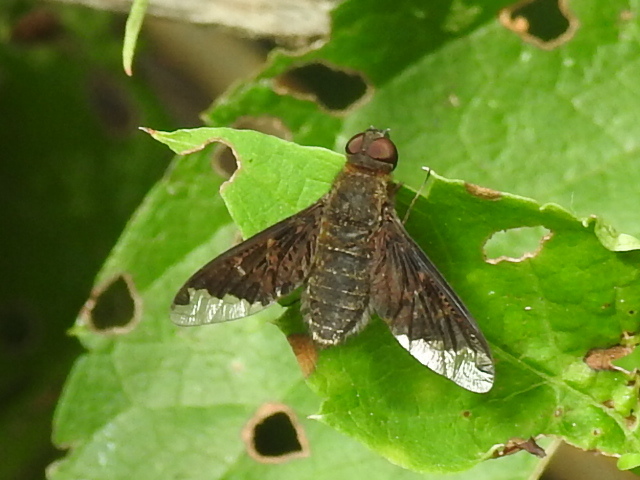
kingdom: Animalia
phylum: Arthropoda
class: Insecta
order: Diptera
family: Bombyliidae
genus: Hemipenthes
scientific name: Hemipenthes sinuosus
